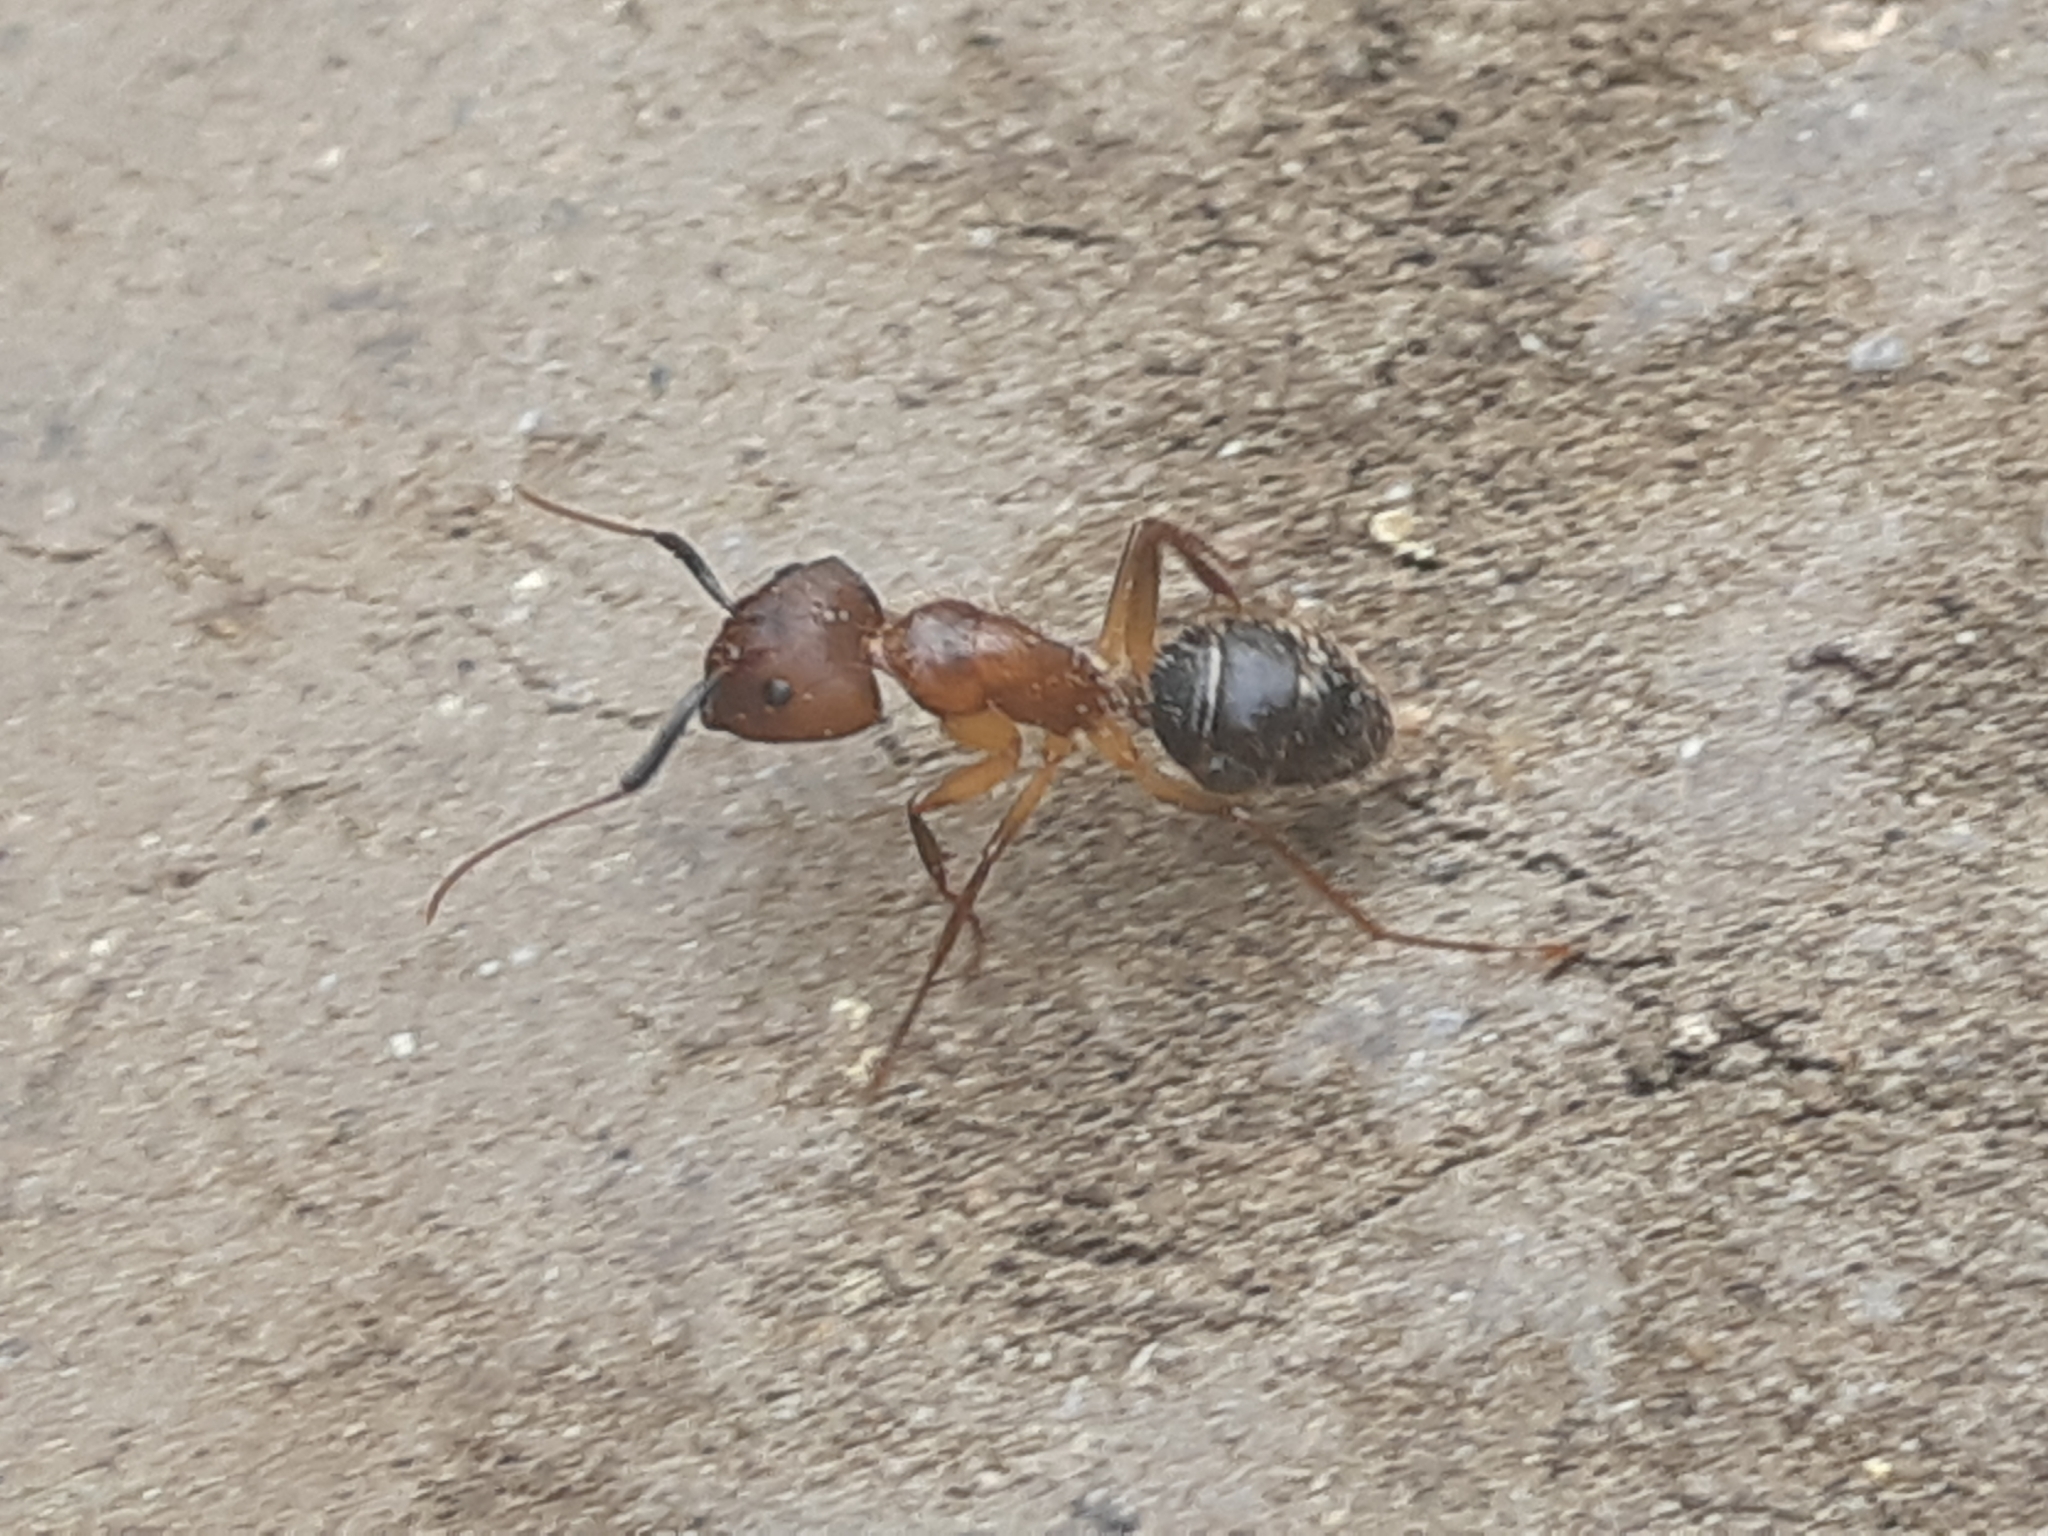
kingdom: Animalia
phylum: Arthropoda
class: Insecta
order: Hymenoptera
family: Formicidae
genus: Camponotus
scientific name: Camponotus atriceps
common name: Florida carpenter ant
